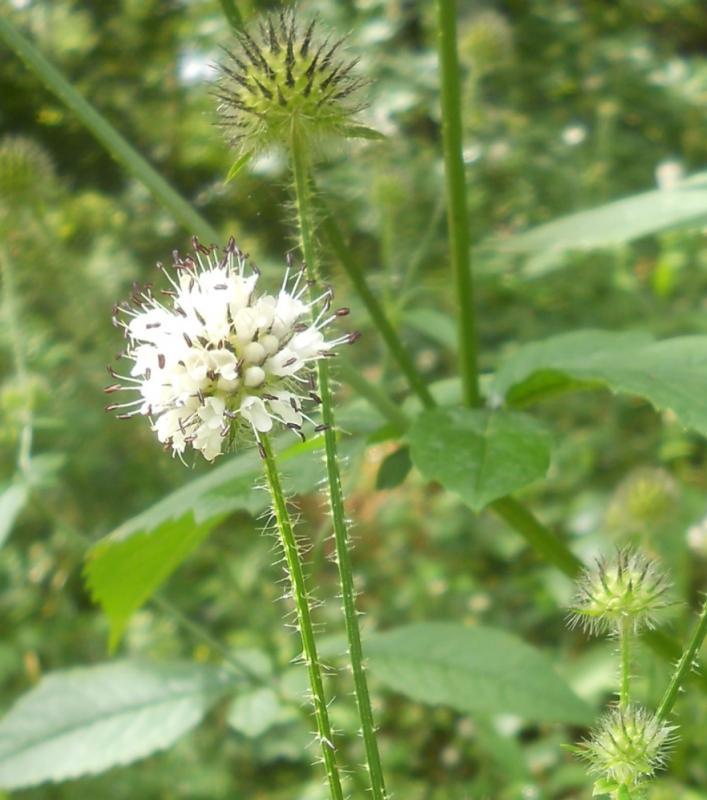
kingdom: Plantae
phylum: Tracheophyta
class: Magnoliopsida
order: Dipsacales
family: Caprifoliaceae
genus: Dipsacus
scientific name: Dipsacus pilosus
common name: Small teasel
